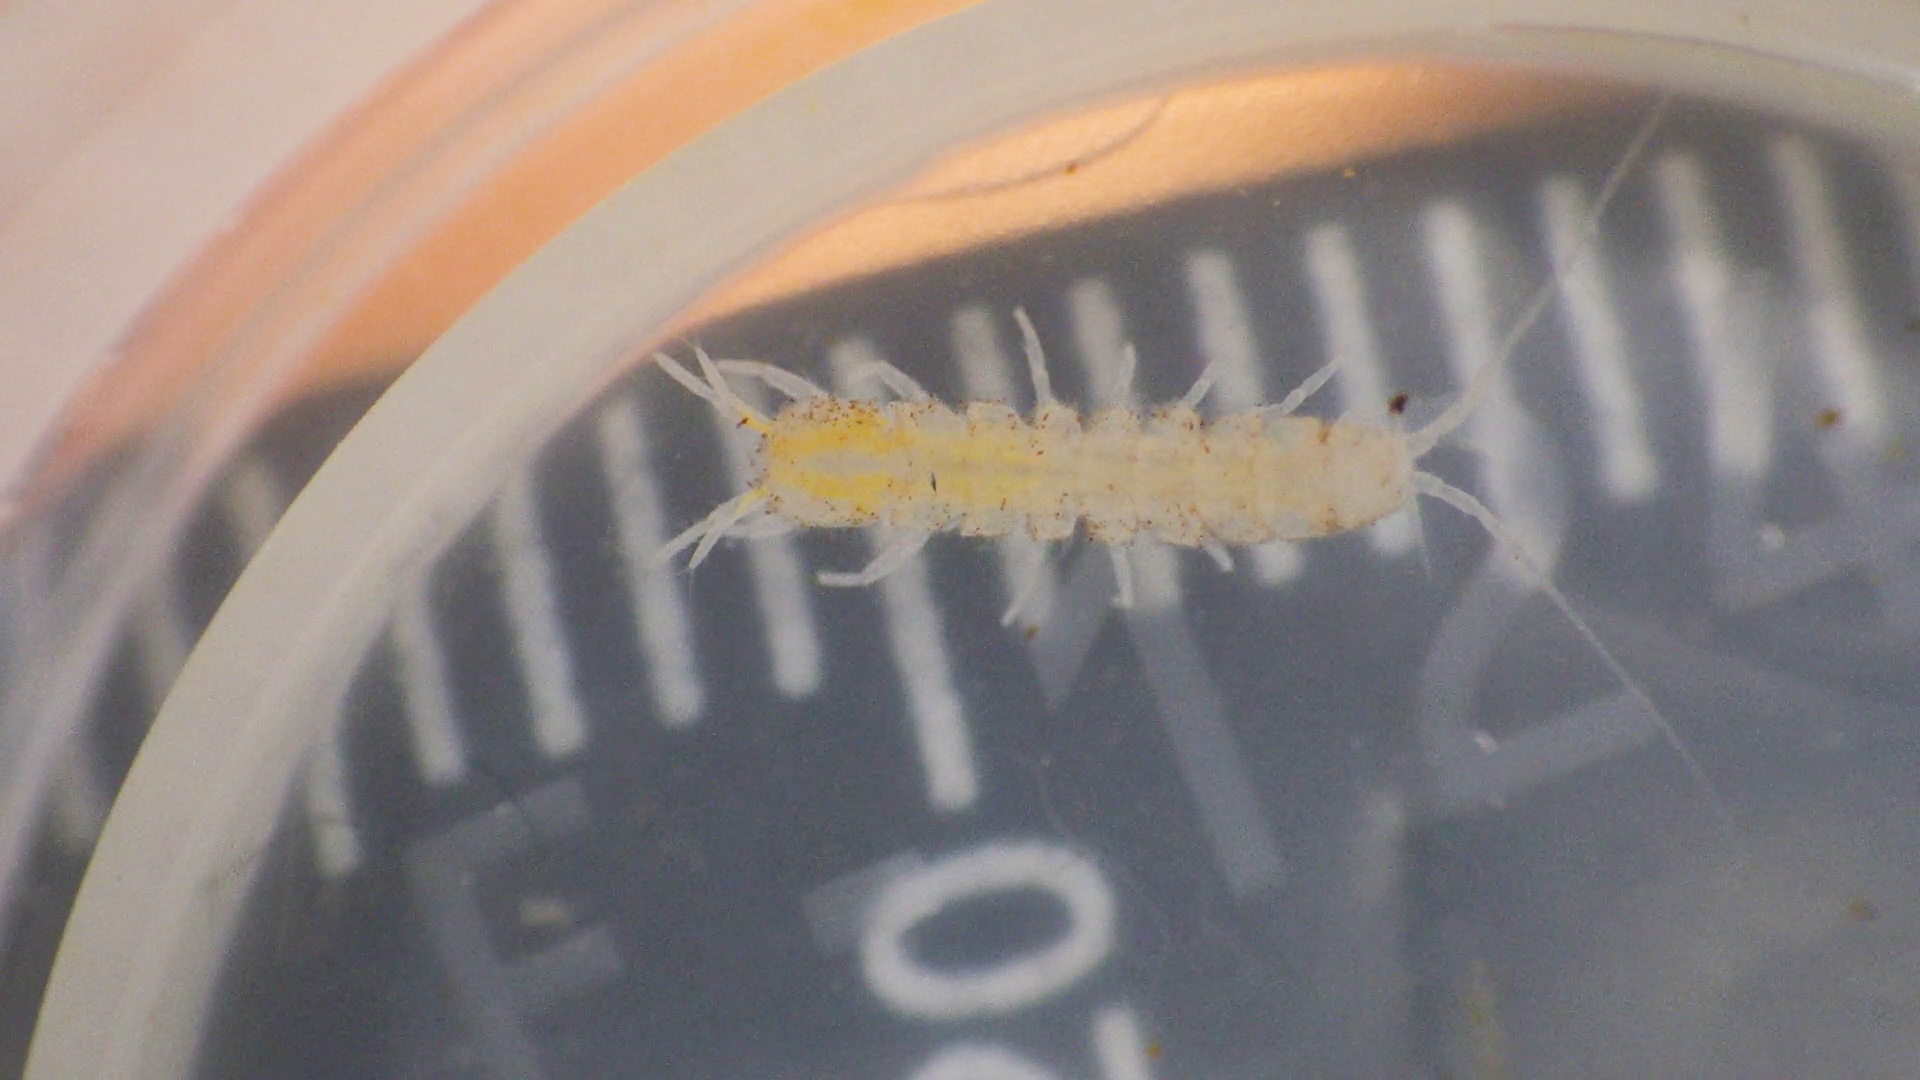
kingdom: Animalia
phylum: Arthropoda
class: Malacostraca
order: Isopoda
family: Asellidae
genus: Caecidotea
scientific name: Caecidotea pricei
